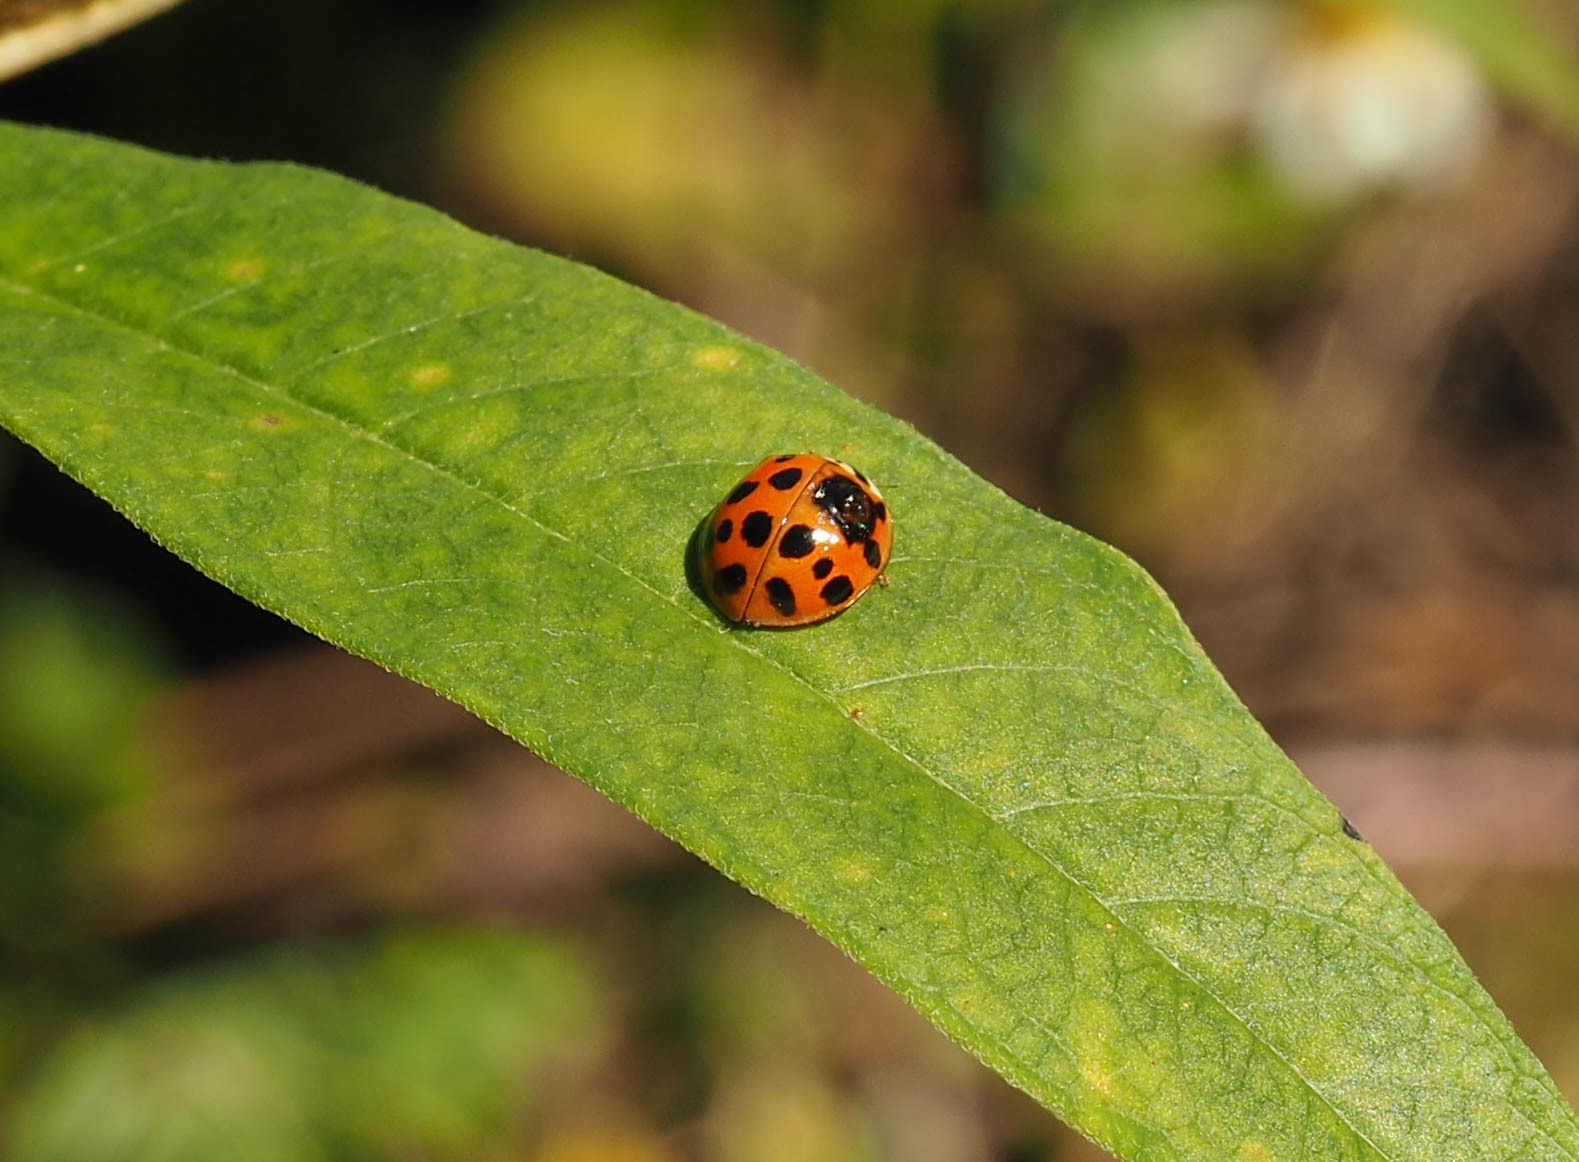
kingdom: Animalia
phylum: Arthropoda
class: Insecta
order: Coleoptera
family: Coccinellidae
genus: Harmonia
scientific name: Harmonia axyridis
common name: Harlequin ladybird
